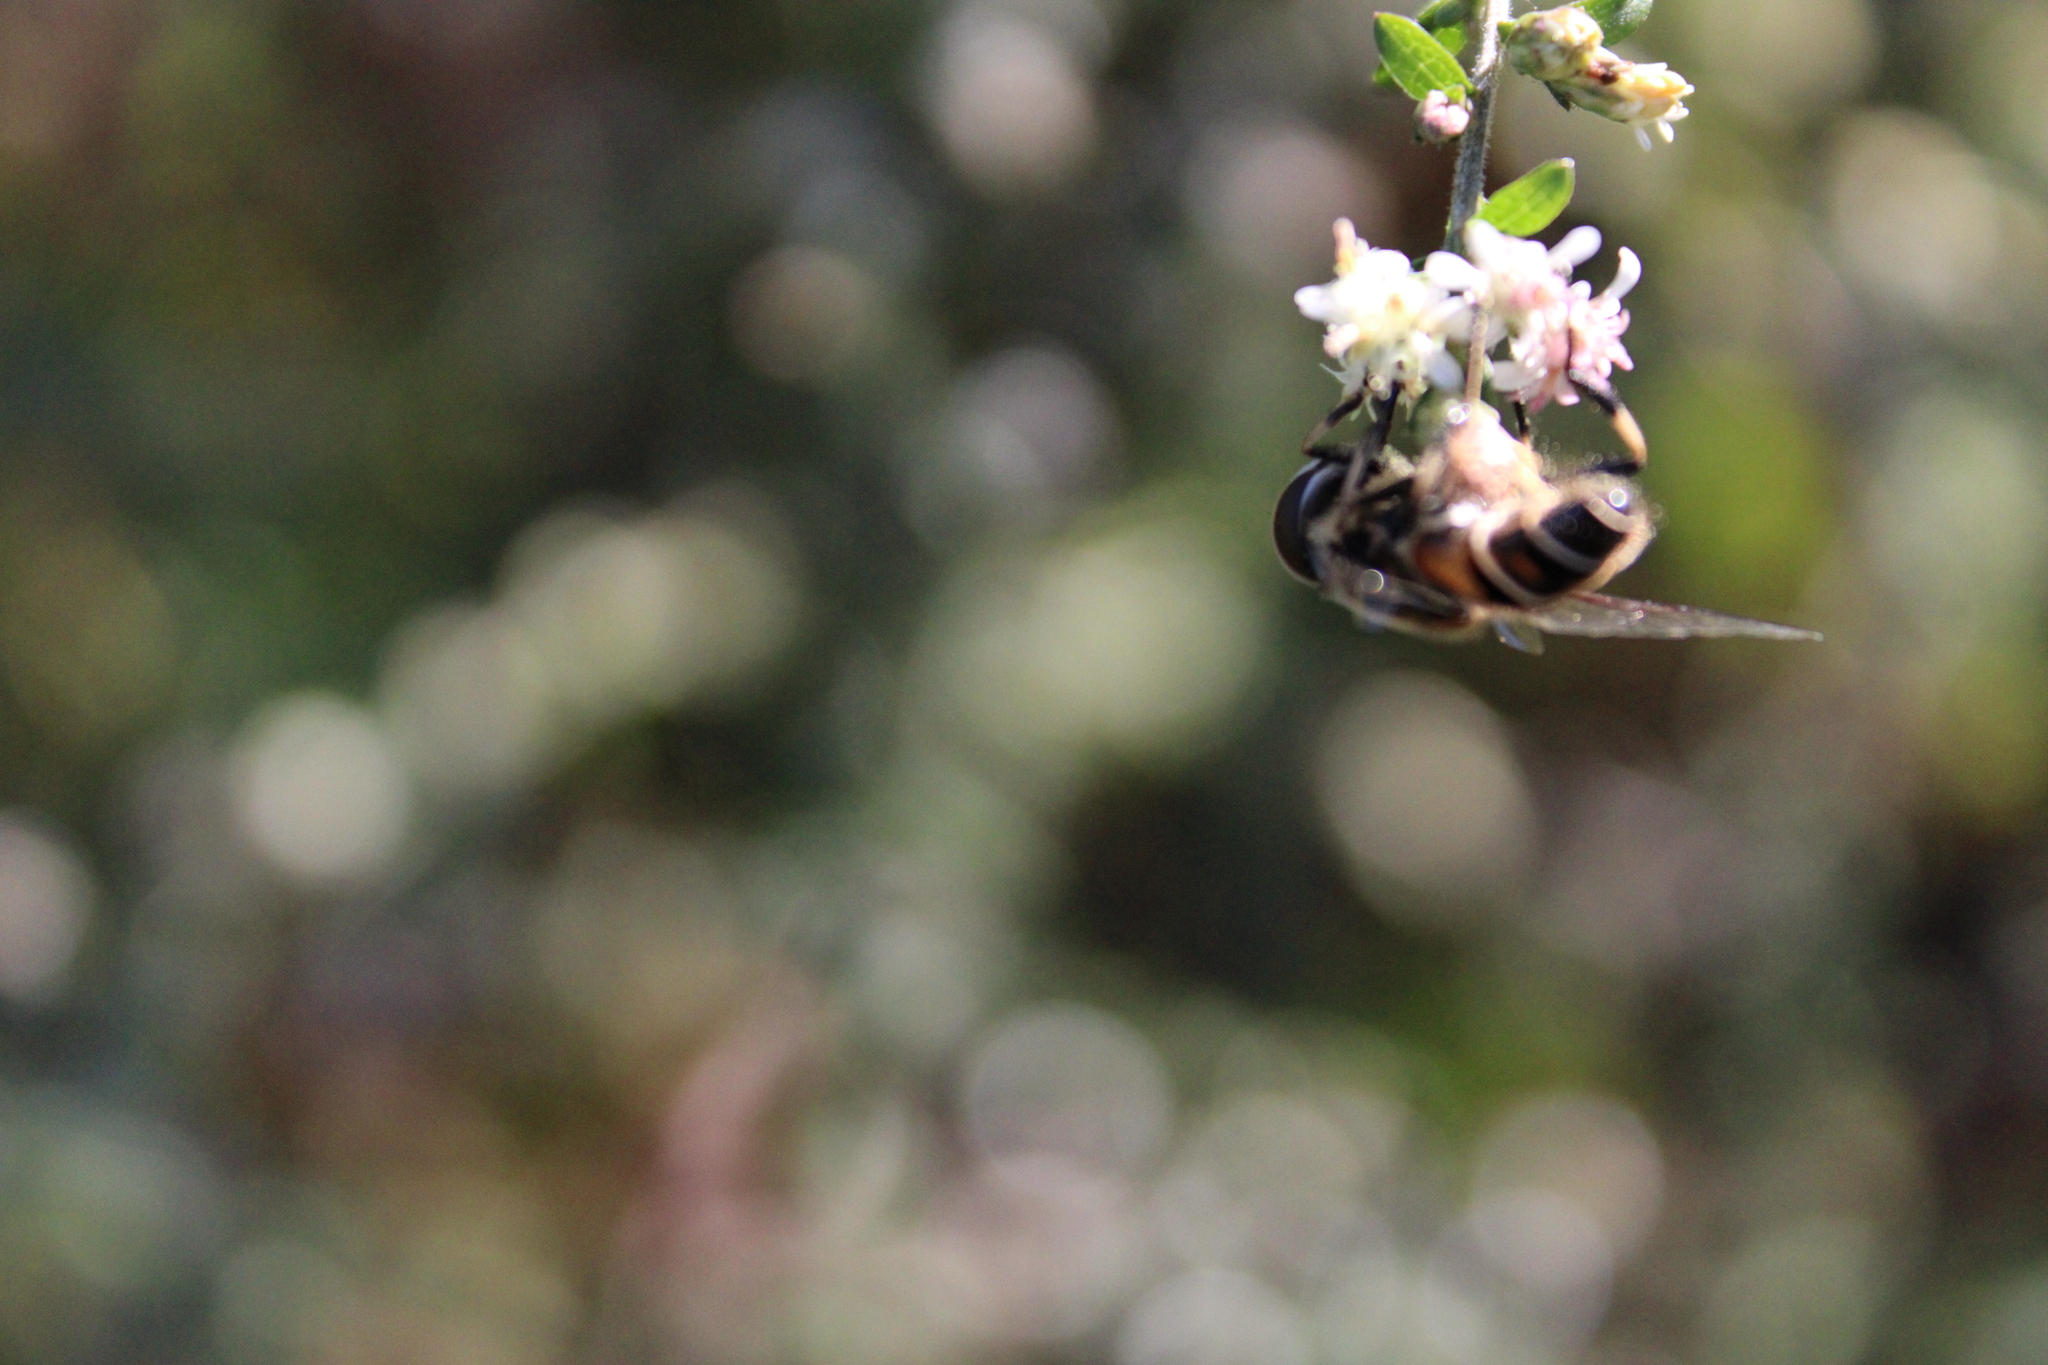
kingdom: Animalia
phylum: Arthropoda
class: Insecta
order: Diptera
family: Syrphidae
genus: Eristalis
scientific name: Eristalis dimidiata
